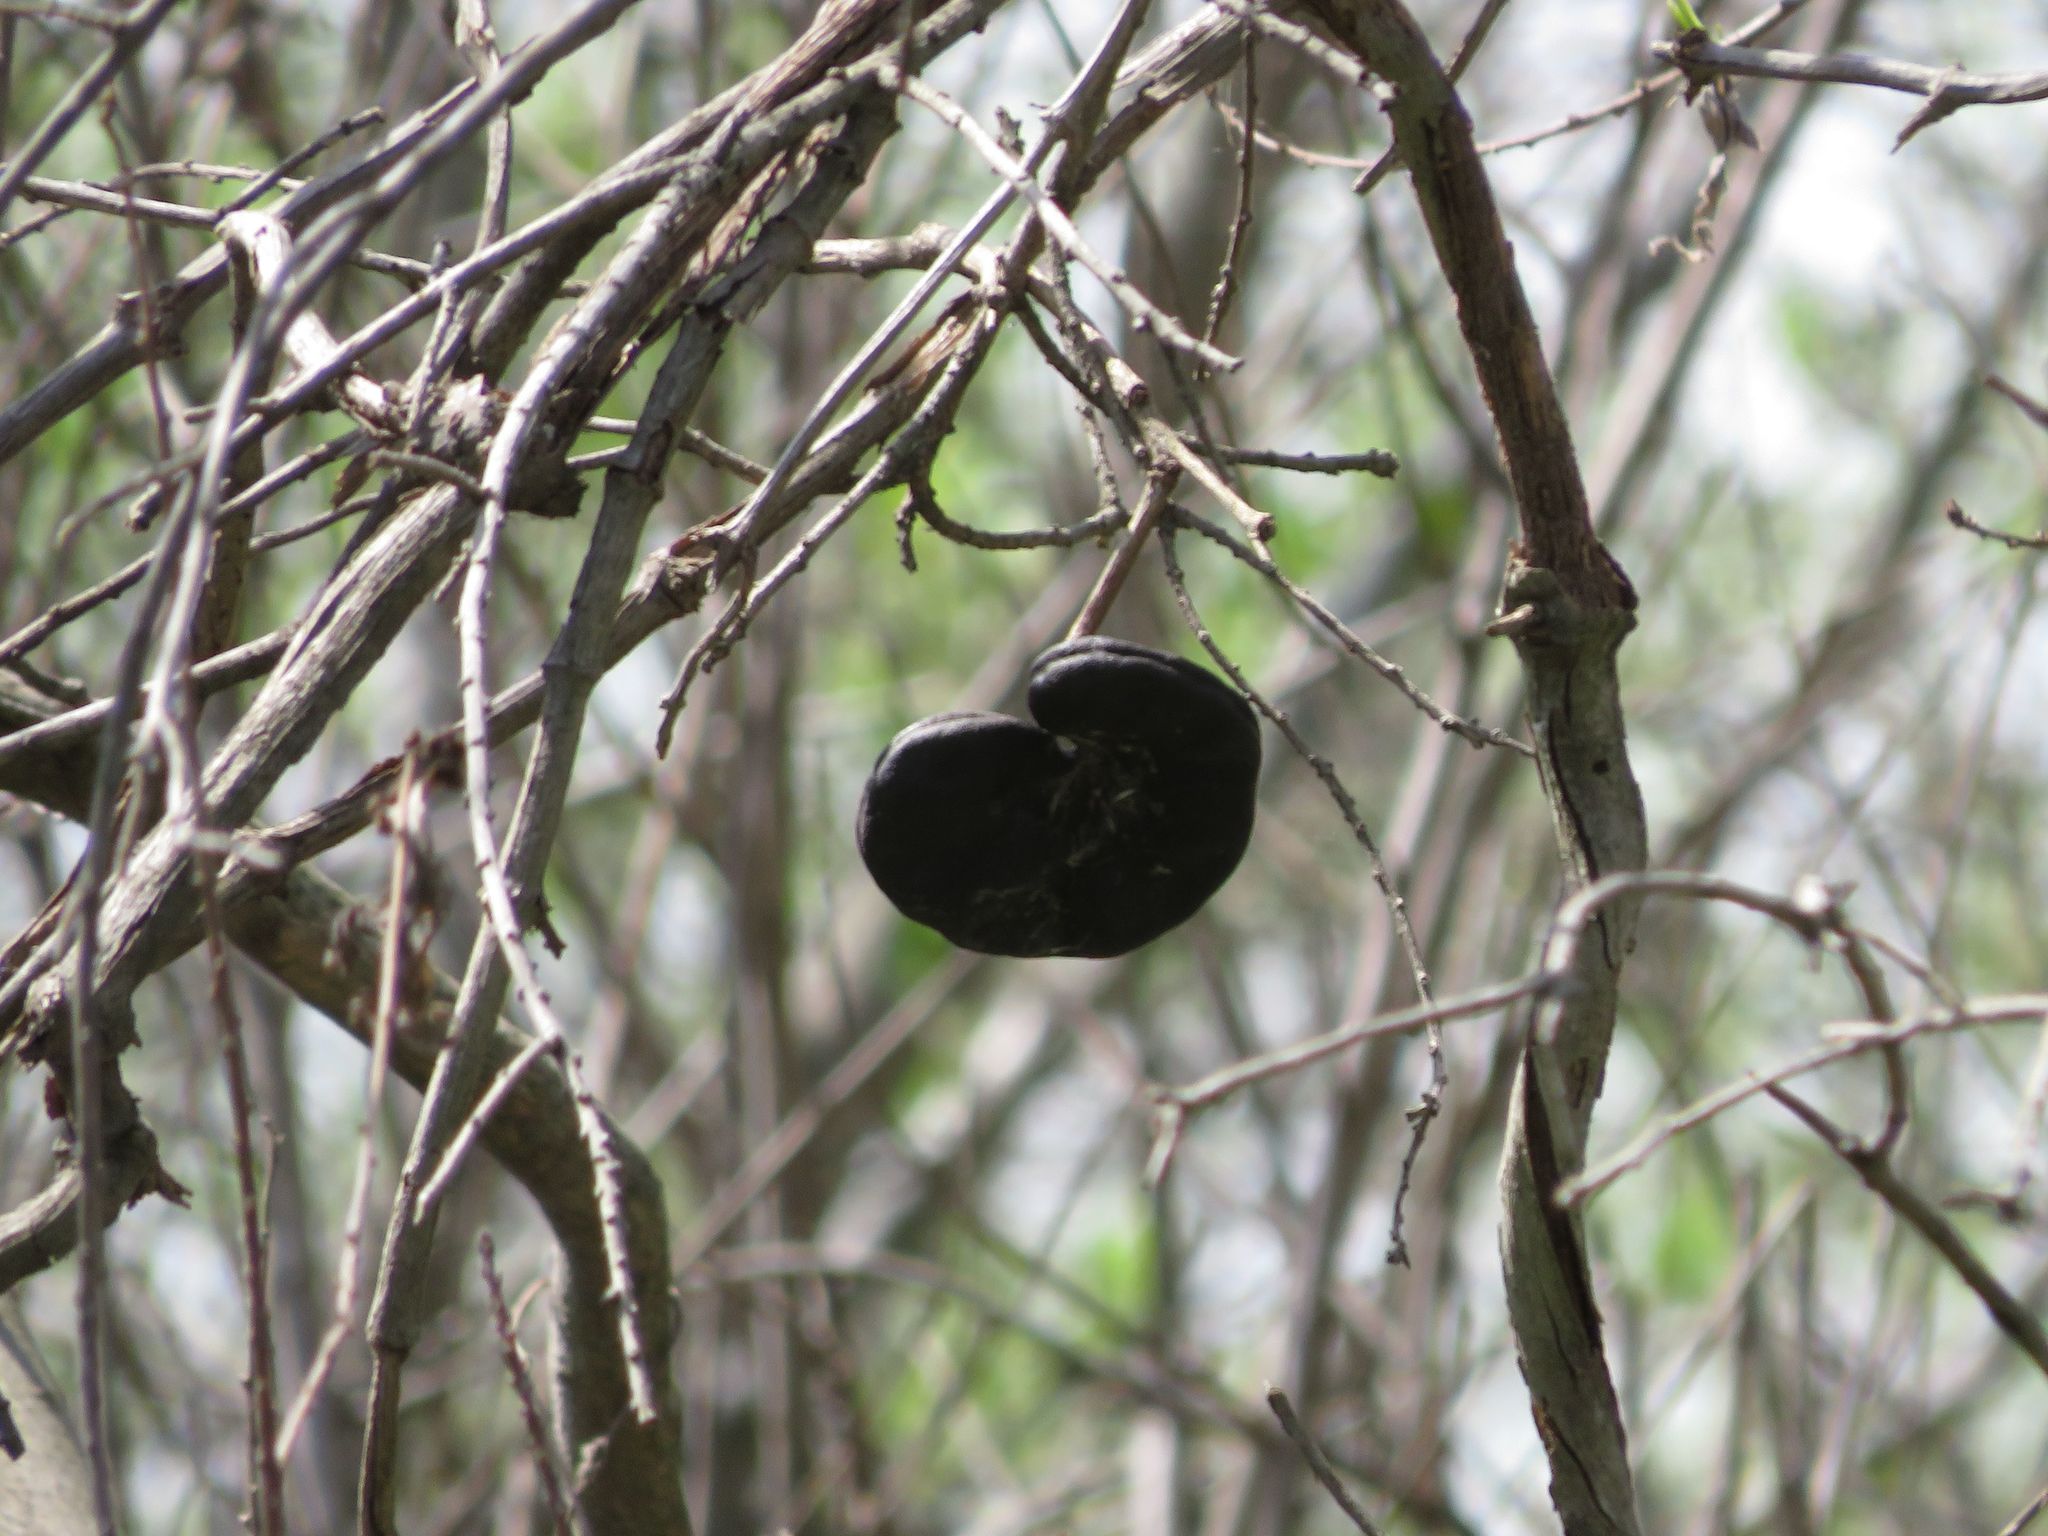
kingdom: Plantae
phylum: Tracheophyta
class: Magnoliopsida
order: Fabales
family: Fabaceae
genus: Enterolobium
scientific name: Enterolobium contortisiliquum
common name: Pacara earpod tree
